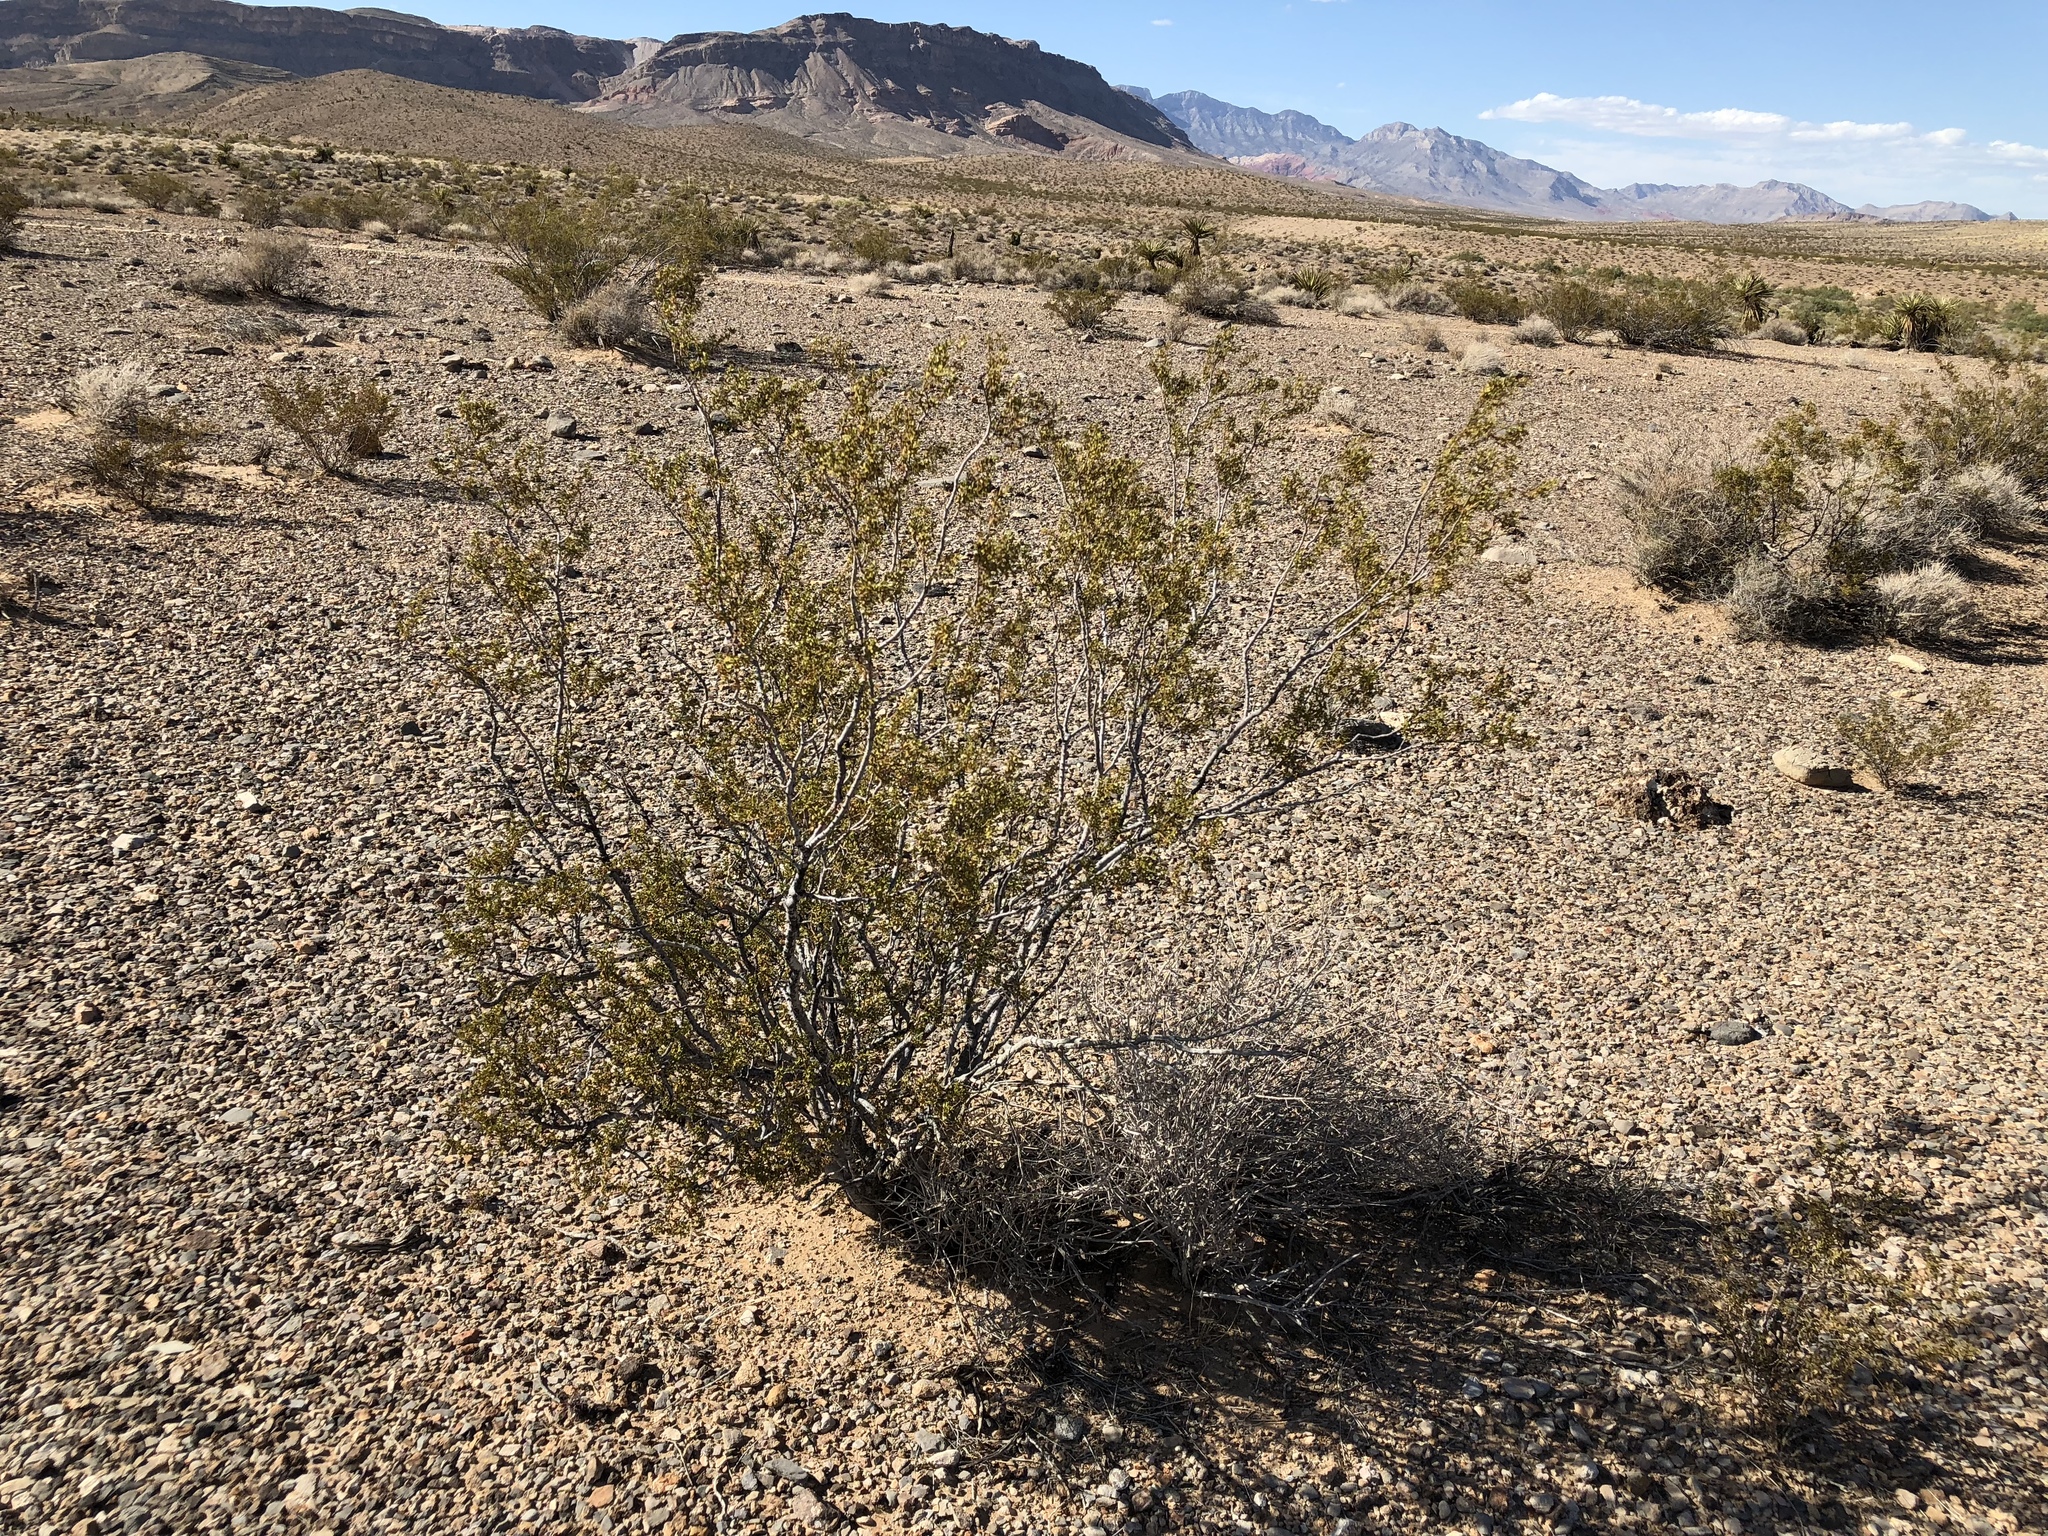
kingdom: Plantae
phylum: Tracheophyta
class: Magnoliopsida
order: Zygophyllales
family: Zygophyllaceae
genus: Larrea
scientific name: Larrea tridentata
